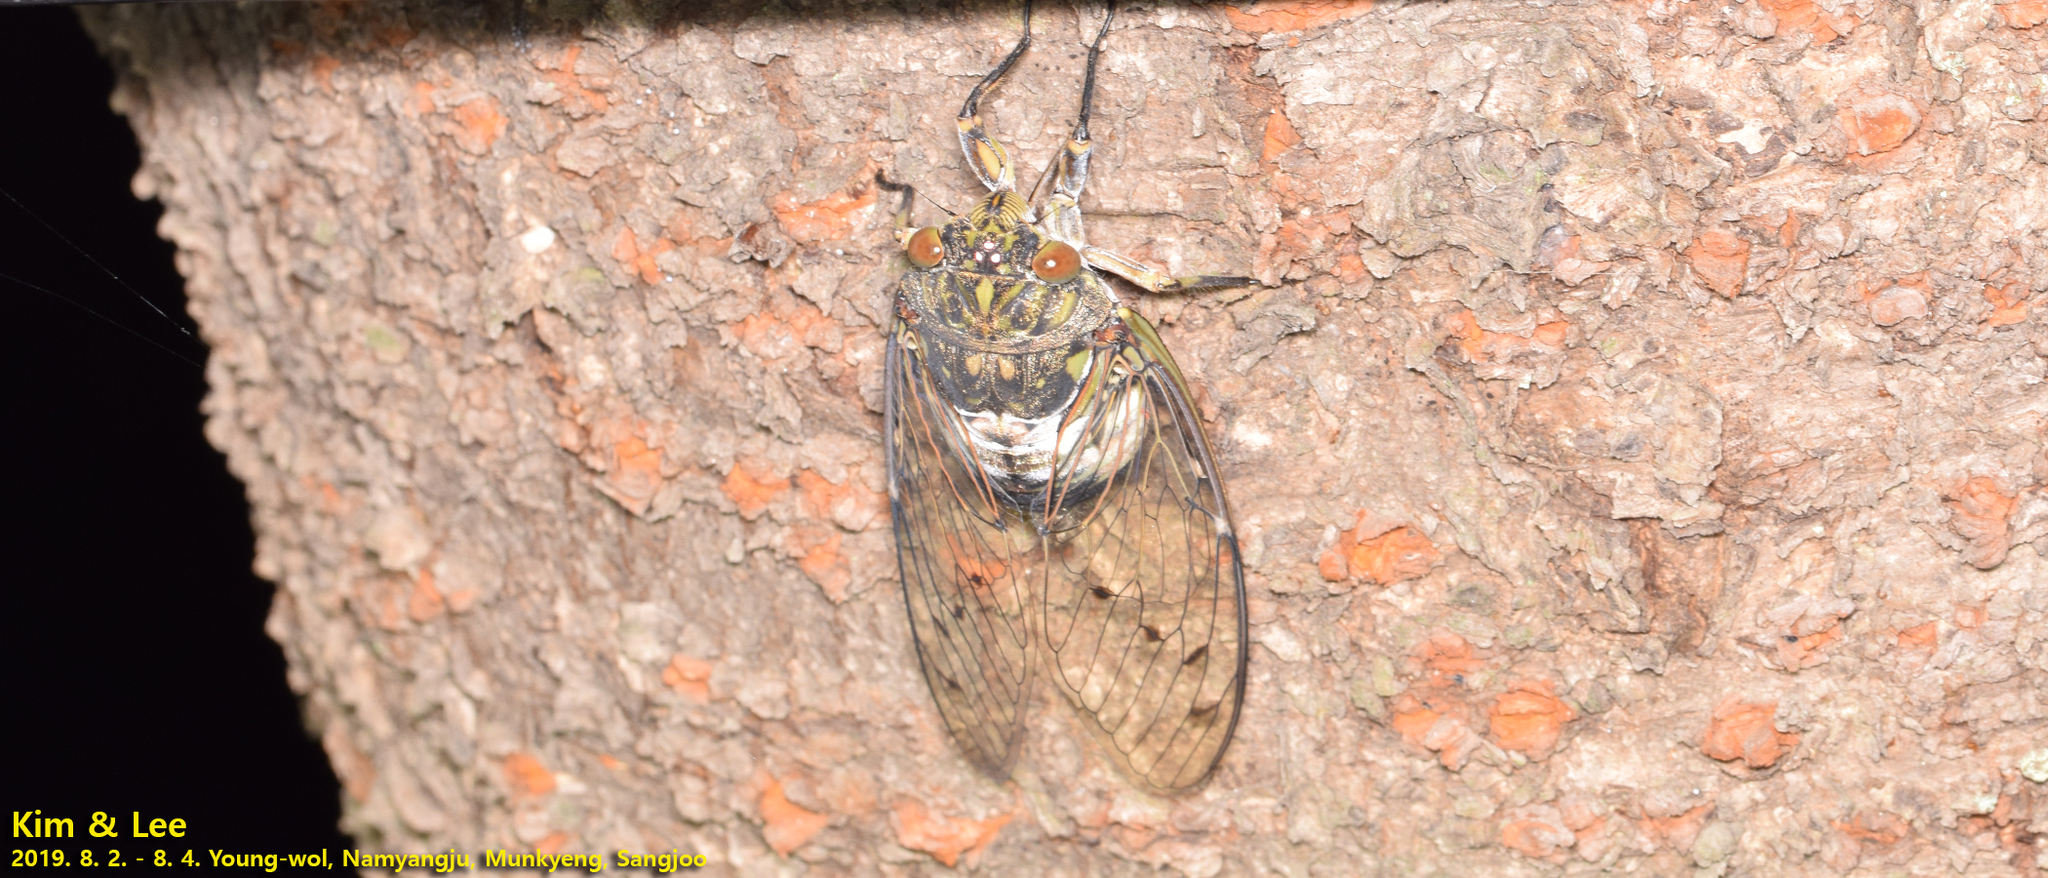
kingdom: Animalia
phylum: Arthropoda
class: Insecta
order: Hemiptera
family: Cicadidae
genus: Hyalessa
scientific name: Hyalessa maculaticollis
